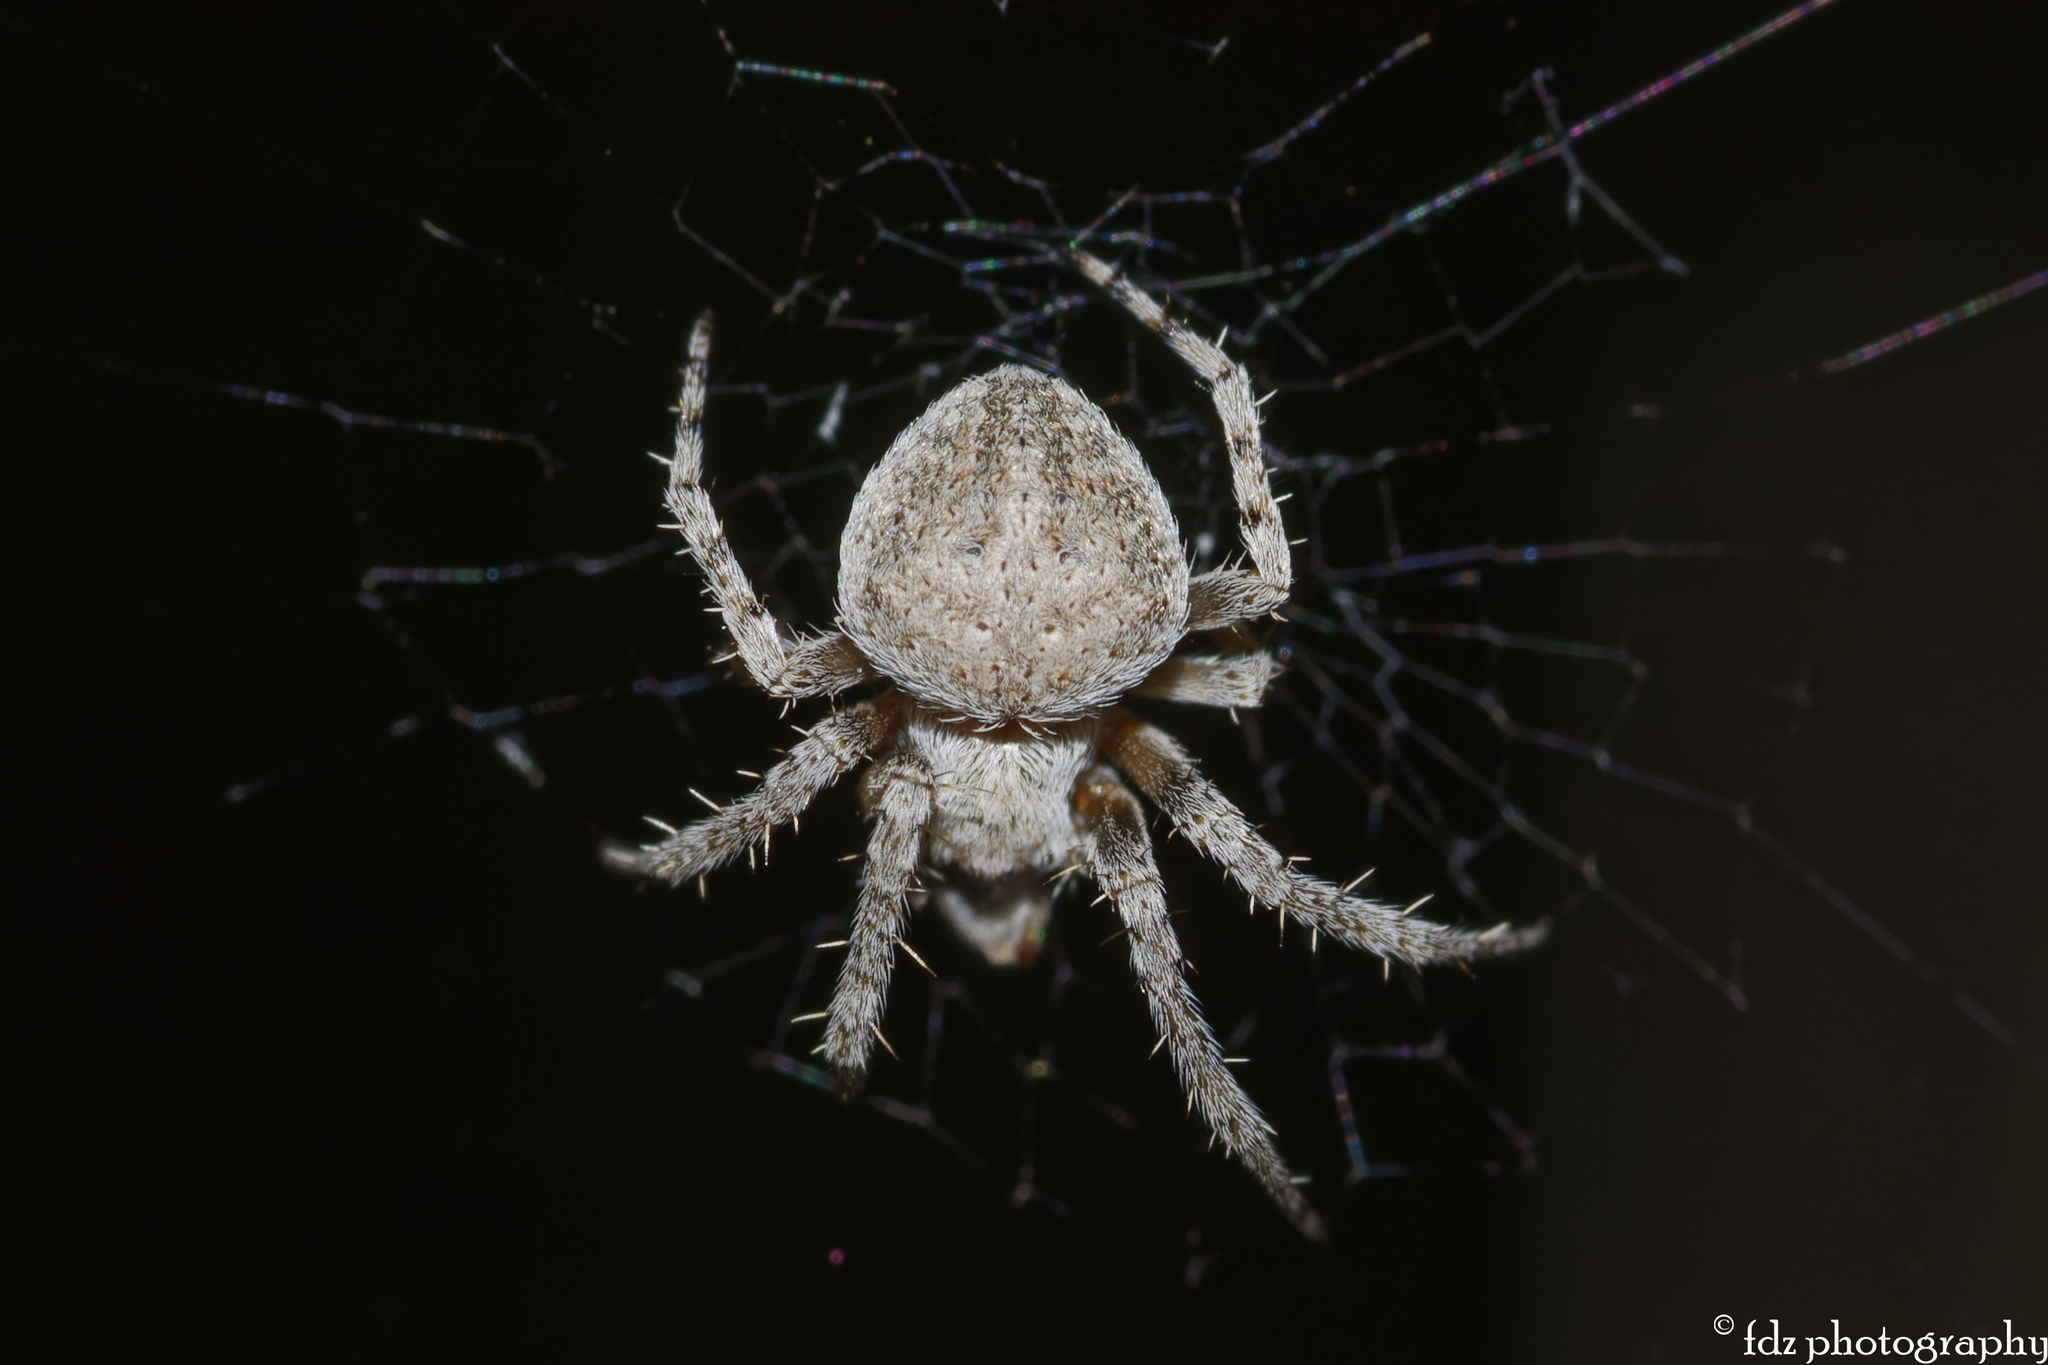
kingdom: Animalia
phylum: Arthropoda
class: Arachnida
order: Araneae
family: Araneidae
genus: Neoscona
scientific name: Neoscona subfusca
